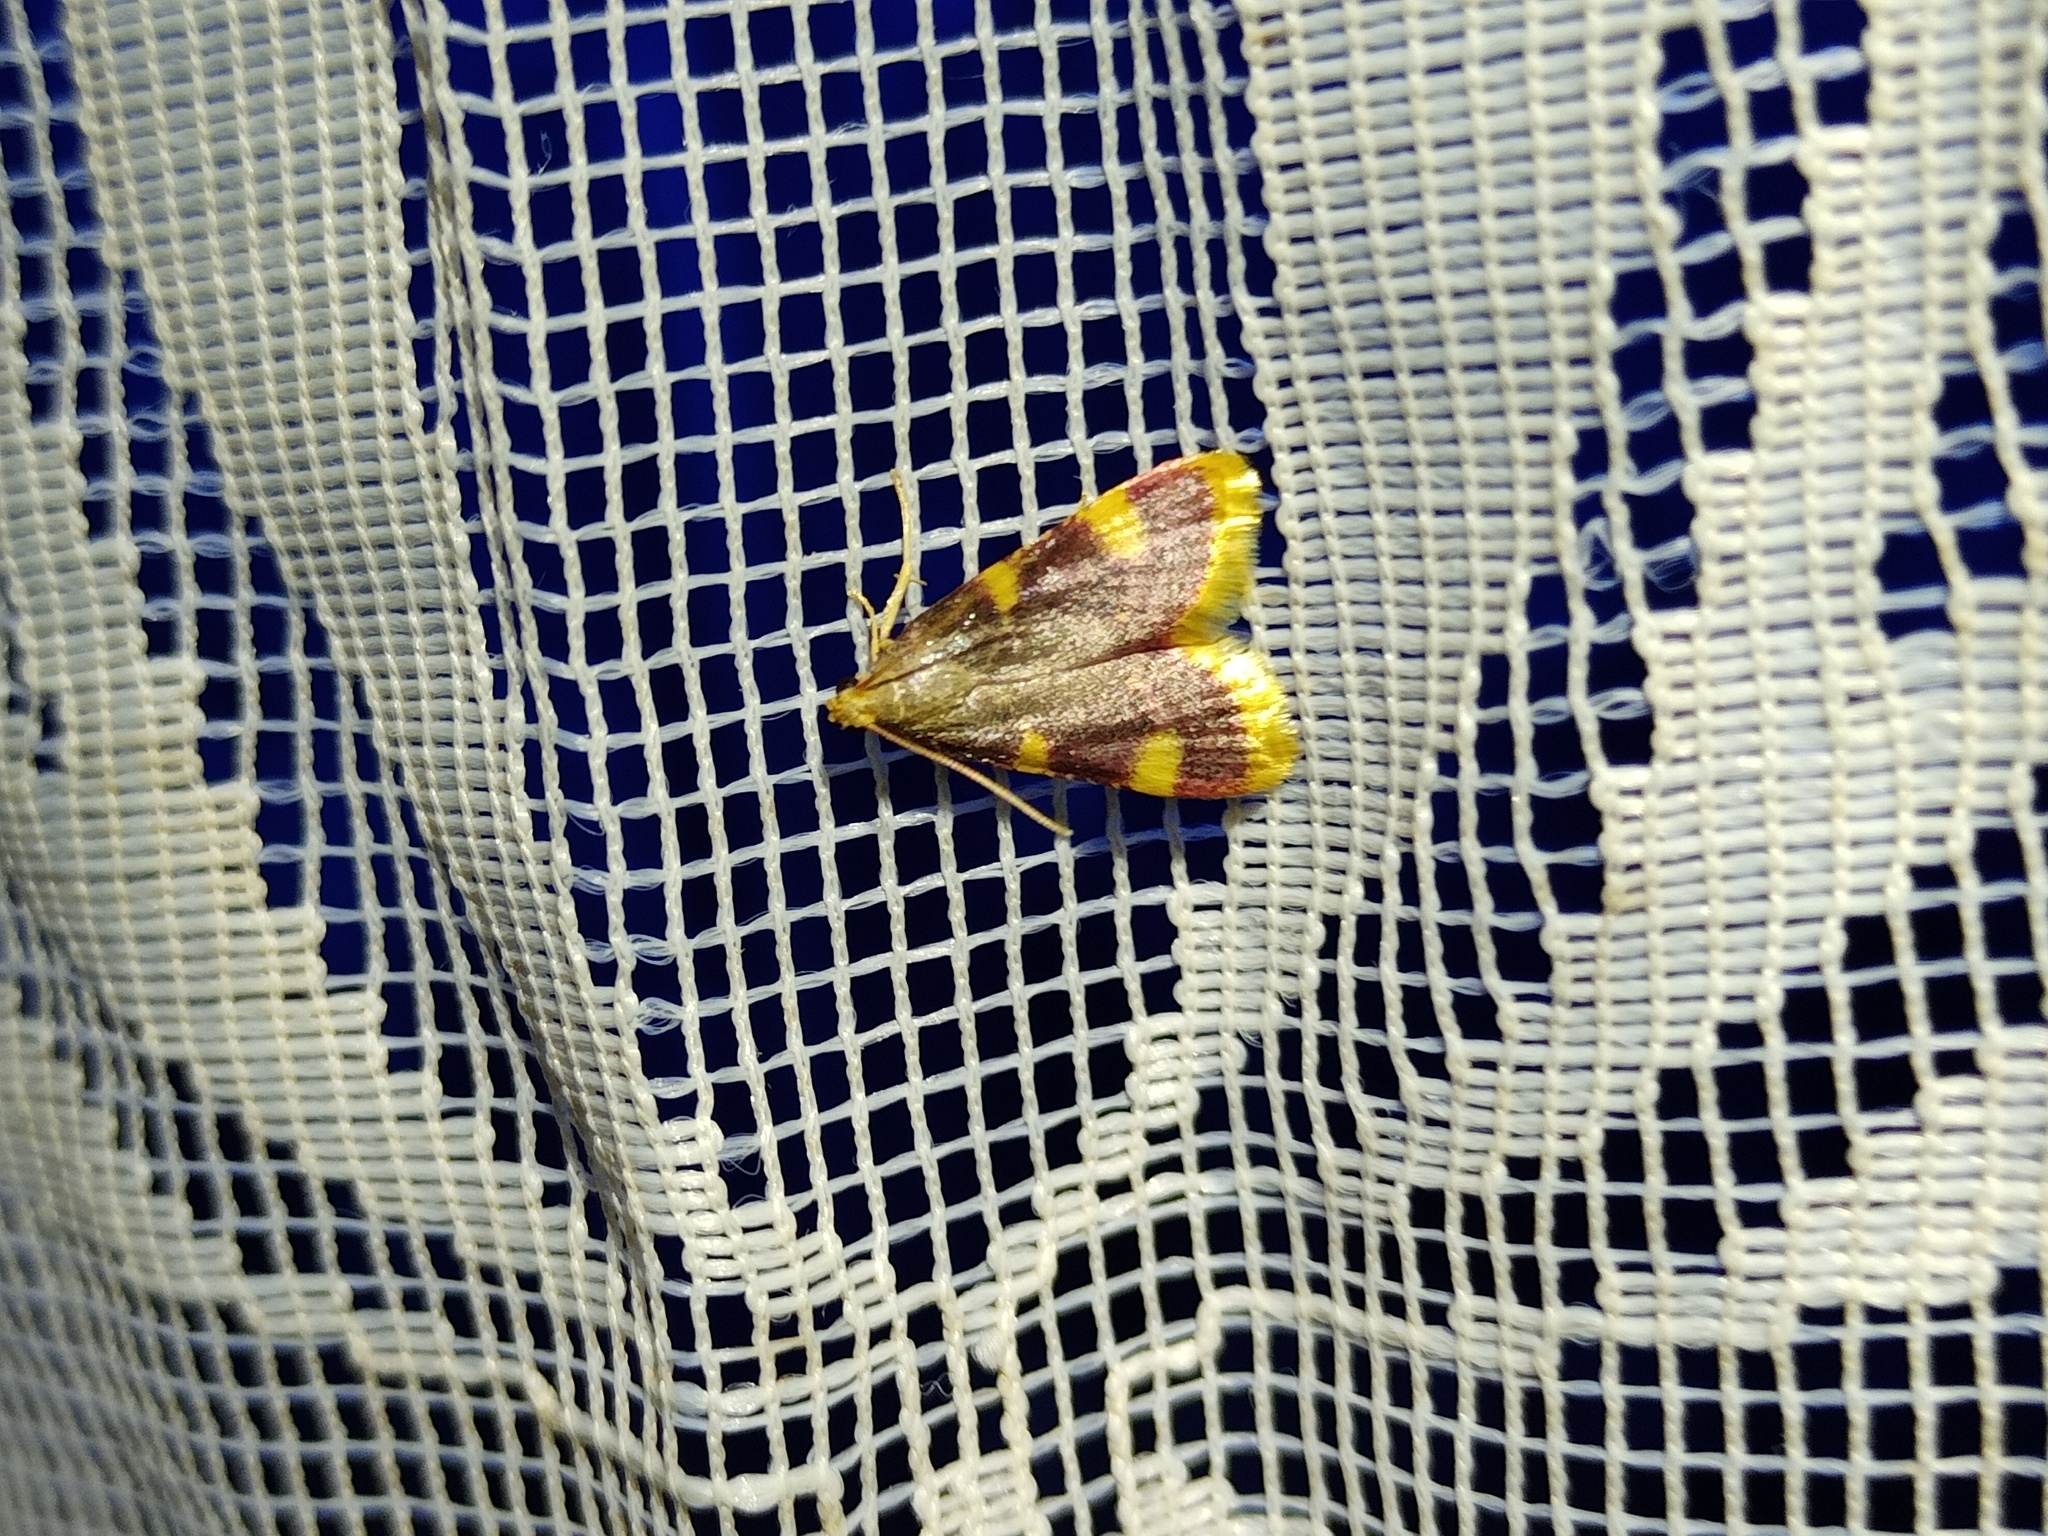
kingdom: Animalia
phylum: Arthropoda
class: Insecta
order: Lepidoptera
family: Pyralidae
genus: Hypsopygia
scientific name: Hypsopygia costalis
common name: Gold triangle
